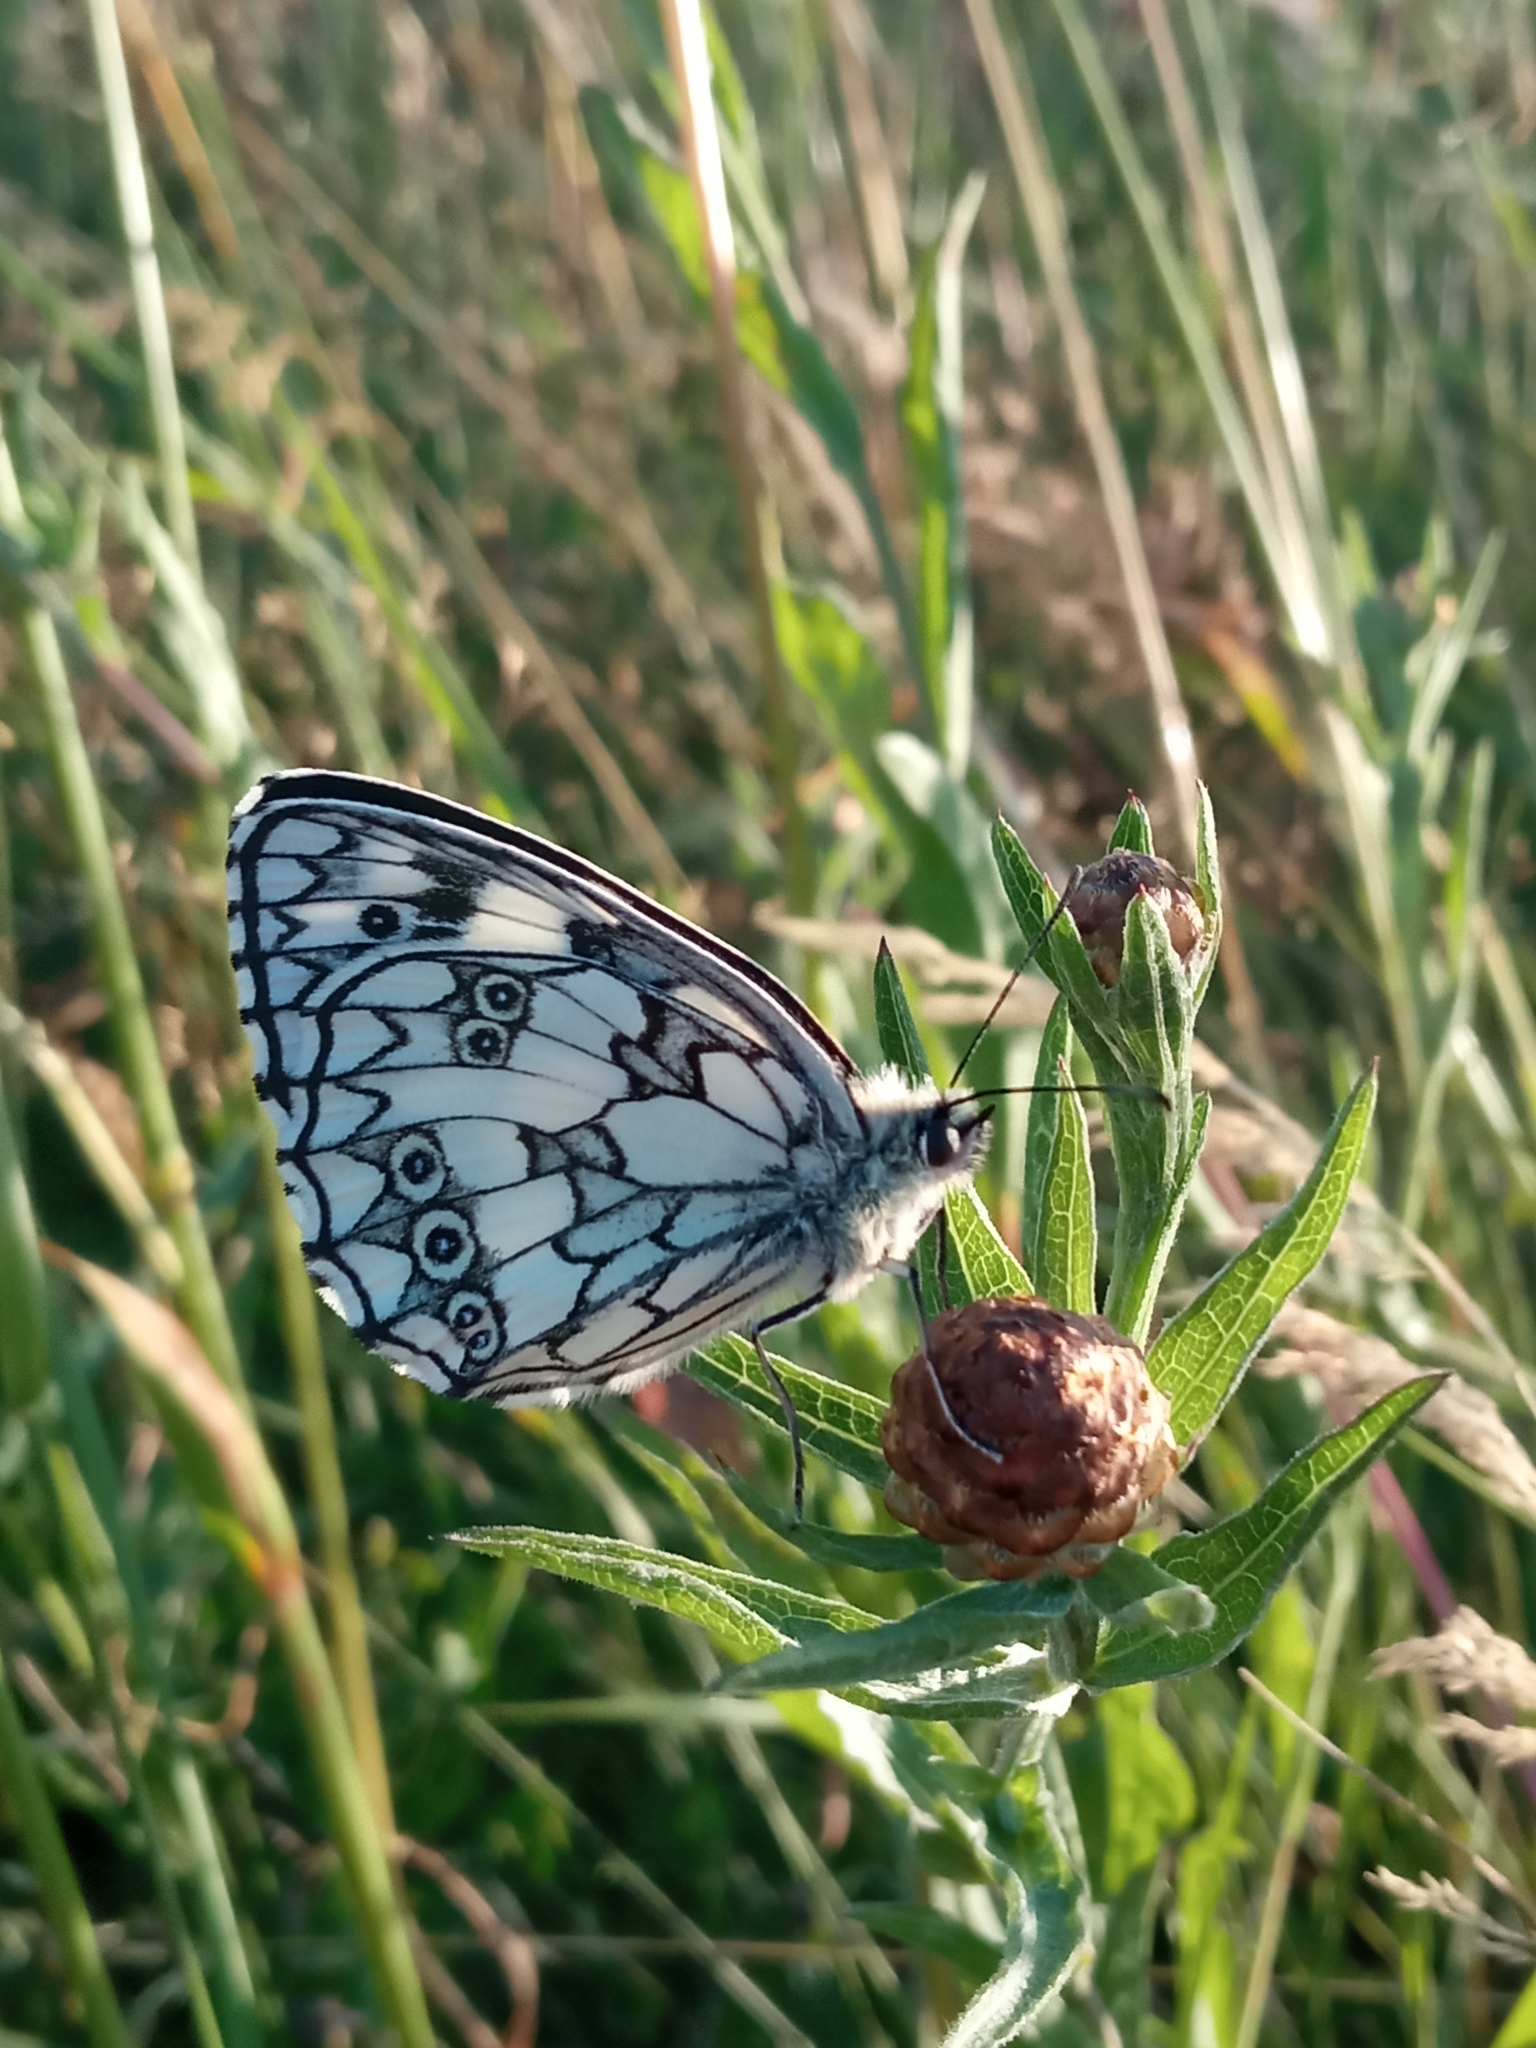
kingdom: Animalia
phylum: Arthropoda
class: Insecta
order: Lepidoptera
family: Nymphalidae
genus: Melanargia
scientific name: Melanargia galathea
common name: Marbled white
